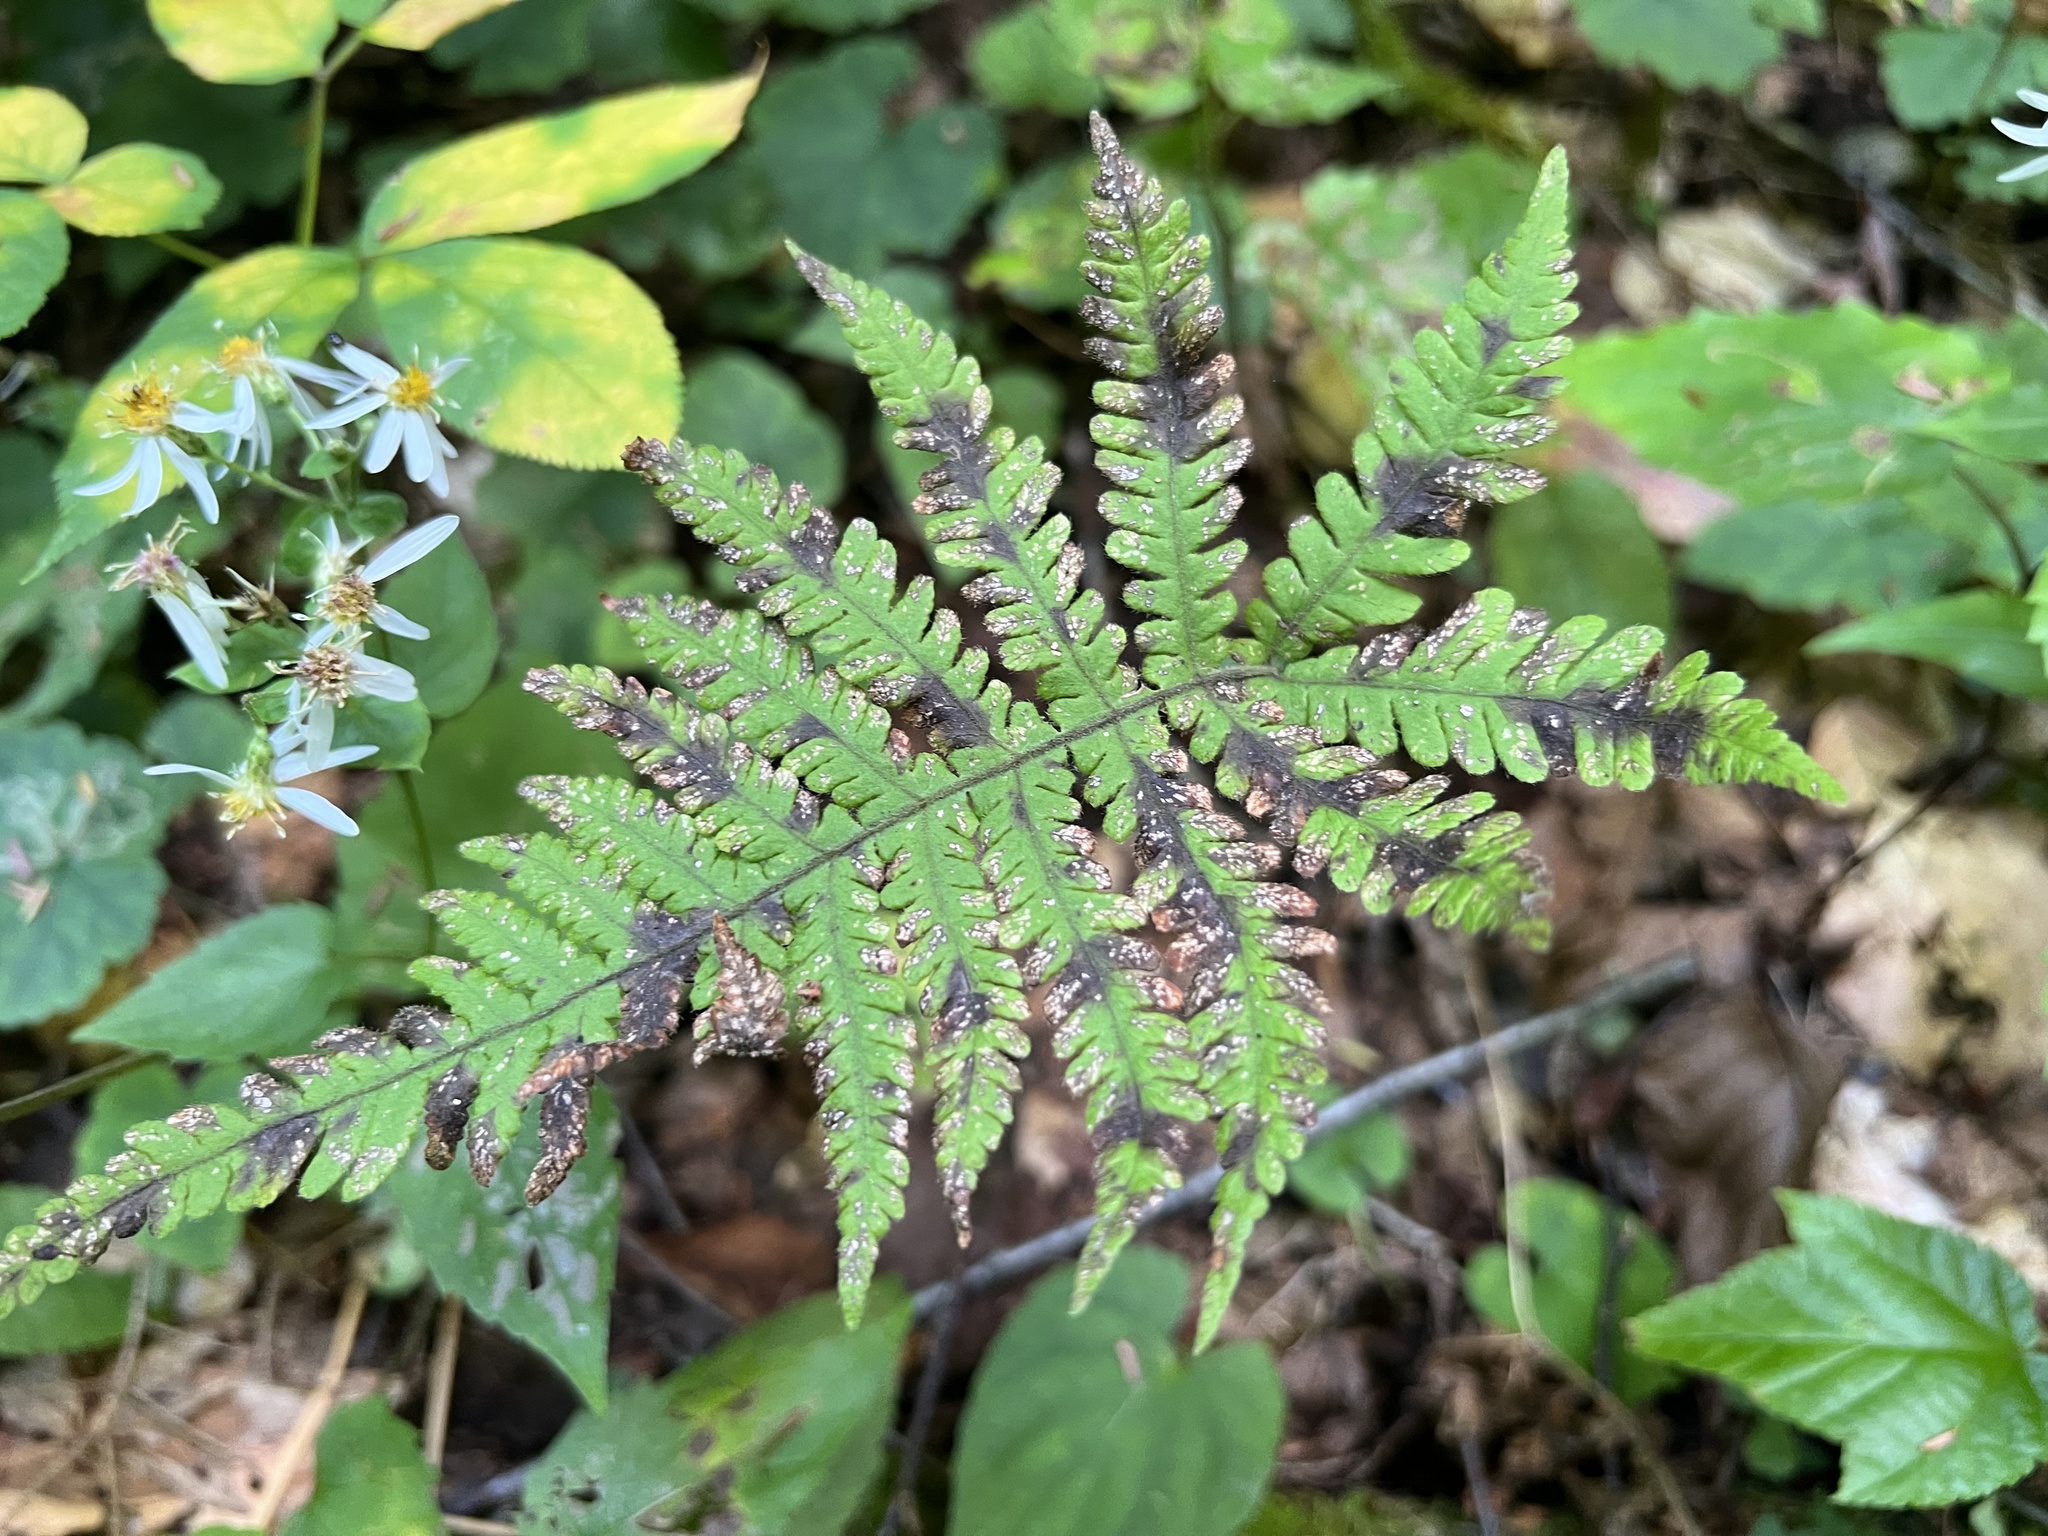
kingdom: Plantae
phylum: Tracheophyta
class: Polypodiopsida
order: Polypodiales
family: Thelypteridaceae
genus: Phegopteris
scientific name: Phegopteris connectilis
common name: Beech fern
